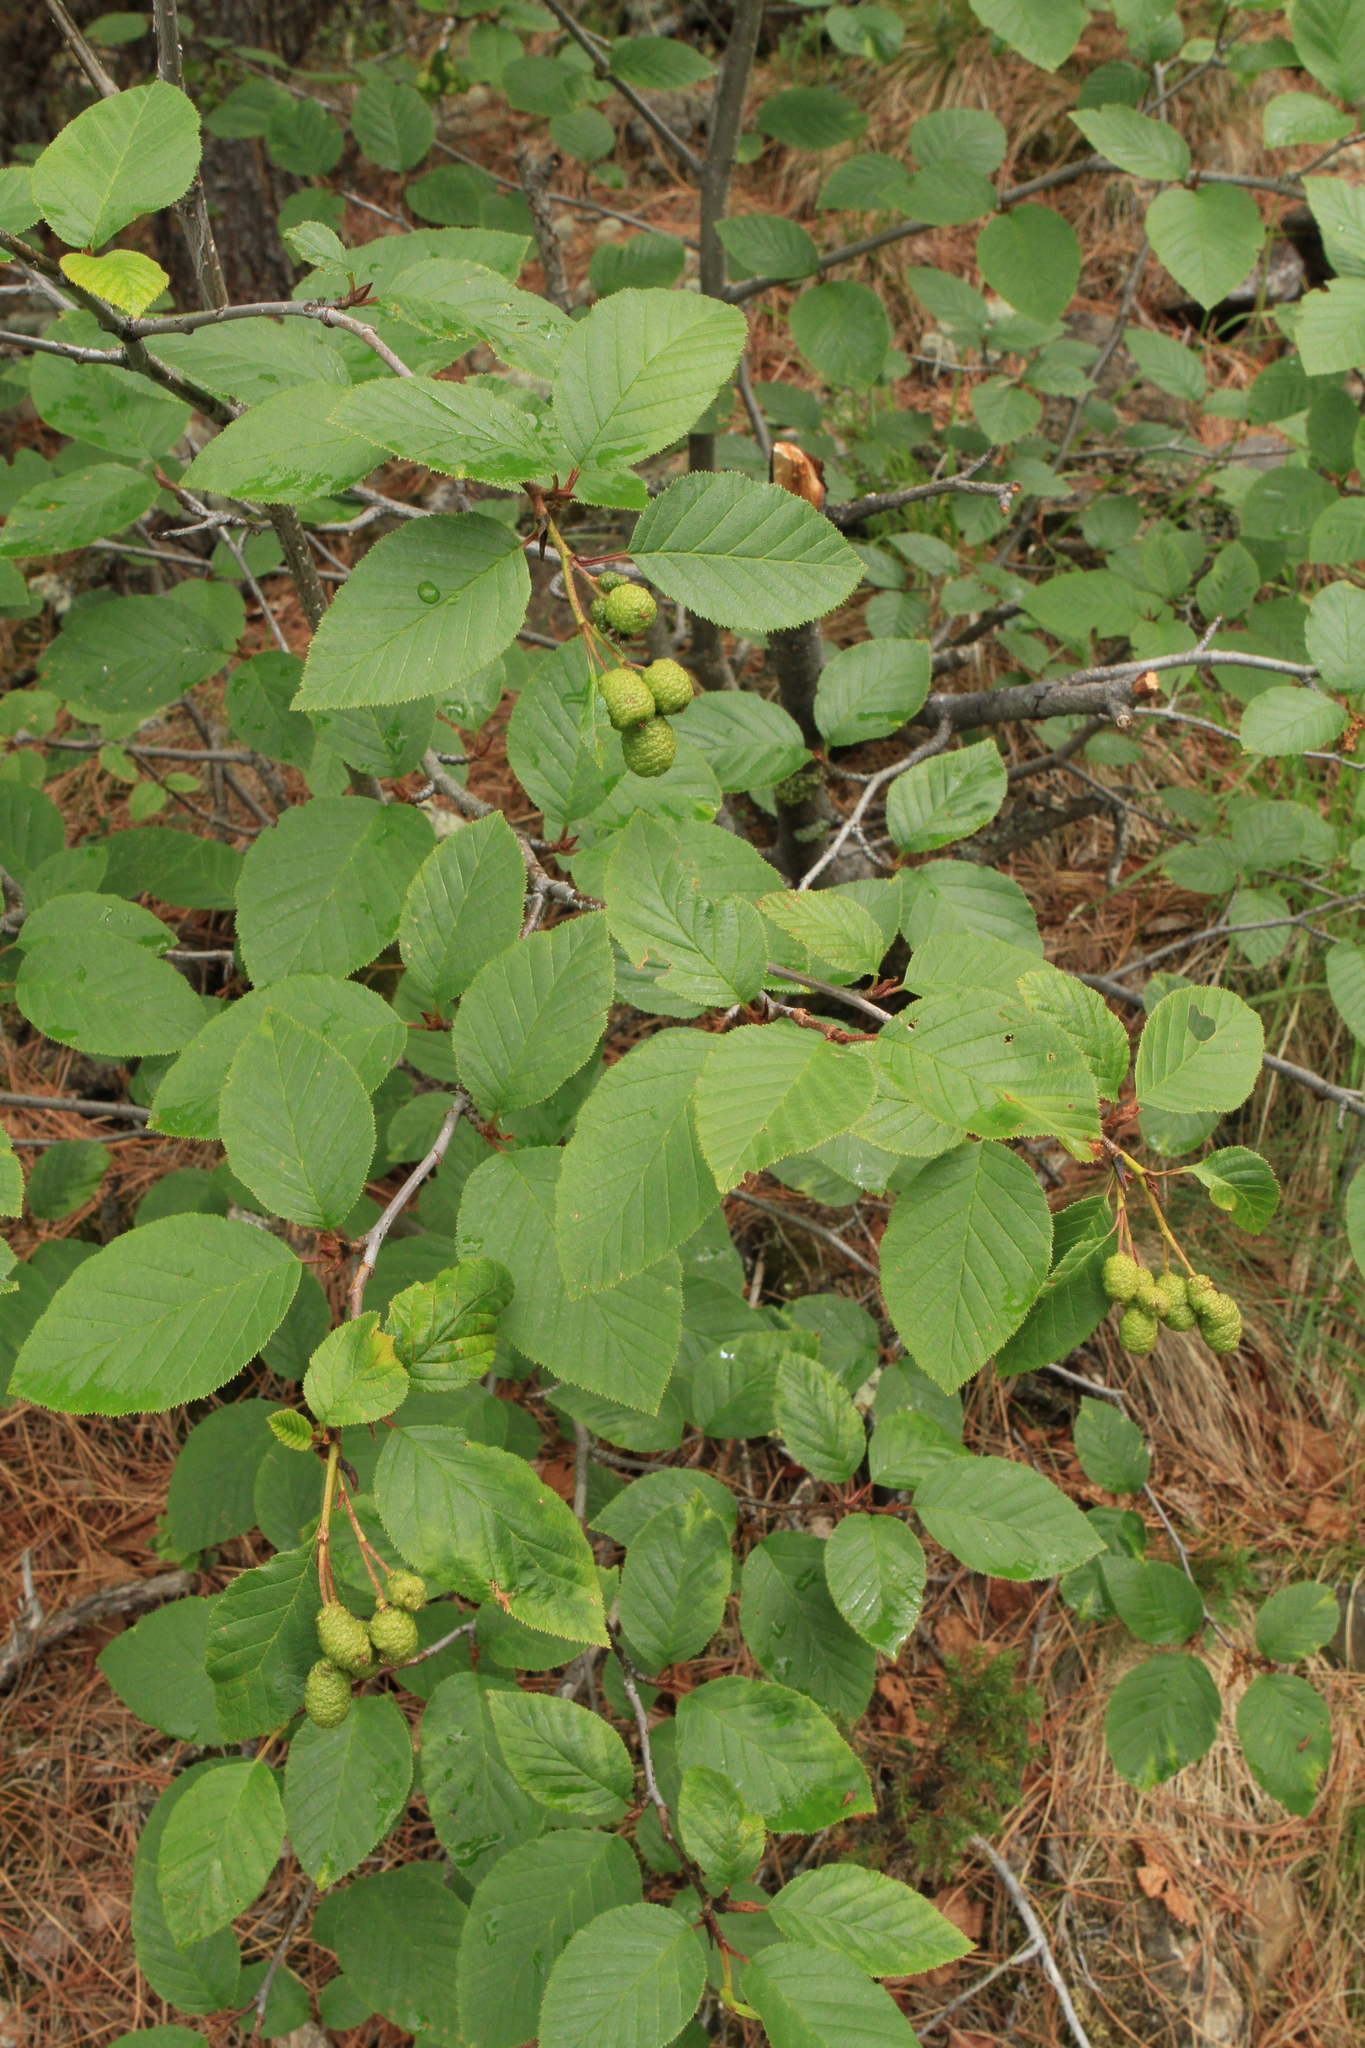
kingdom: Plantae
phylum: Tracheophyta
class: Magnoliopsida
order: Fagales
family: Betulaceae
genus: Alnus
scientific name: Alnus alnobetula
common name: Green alder
